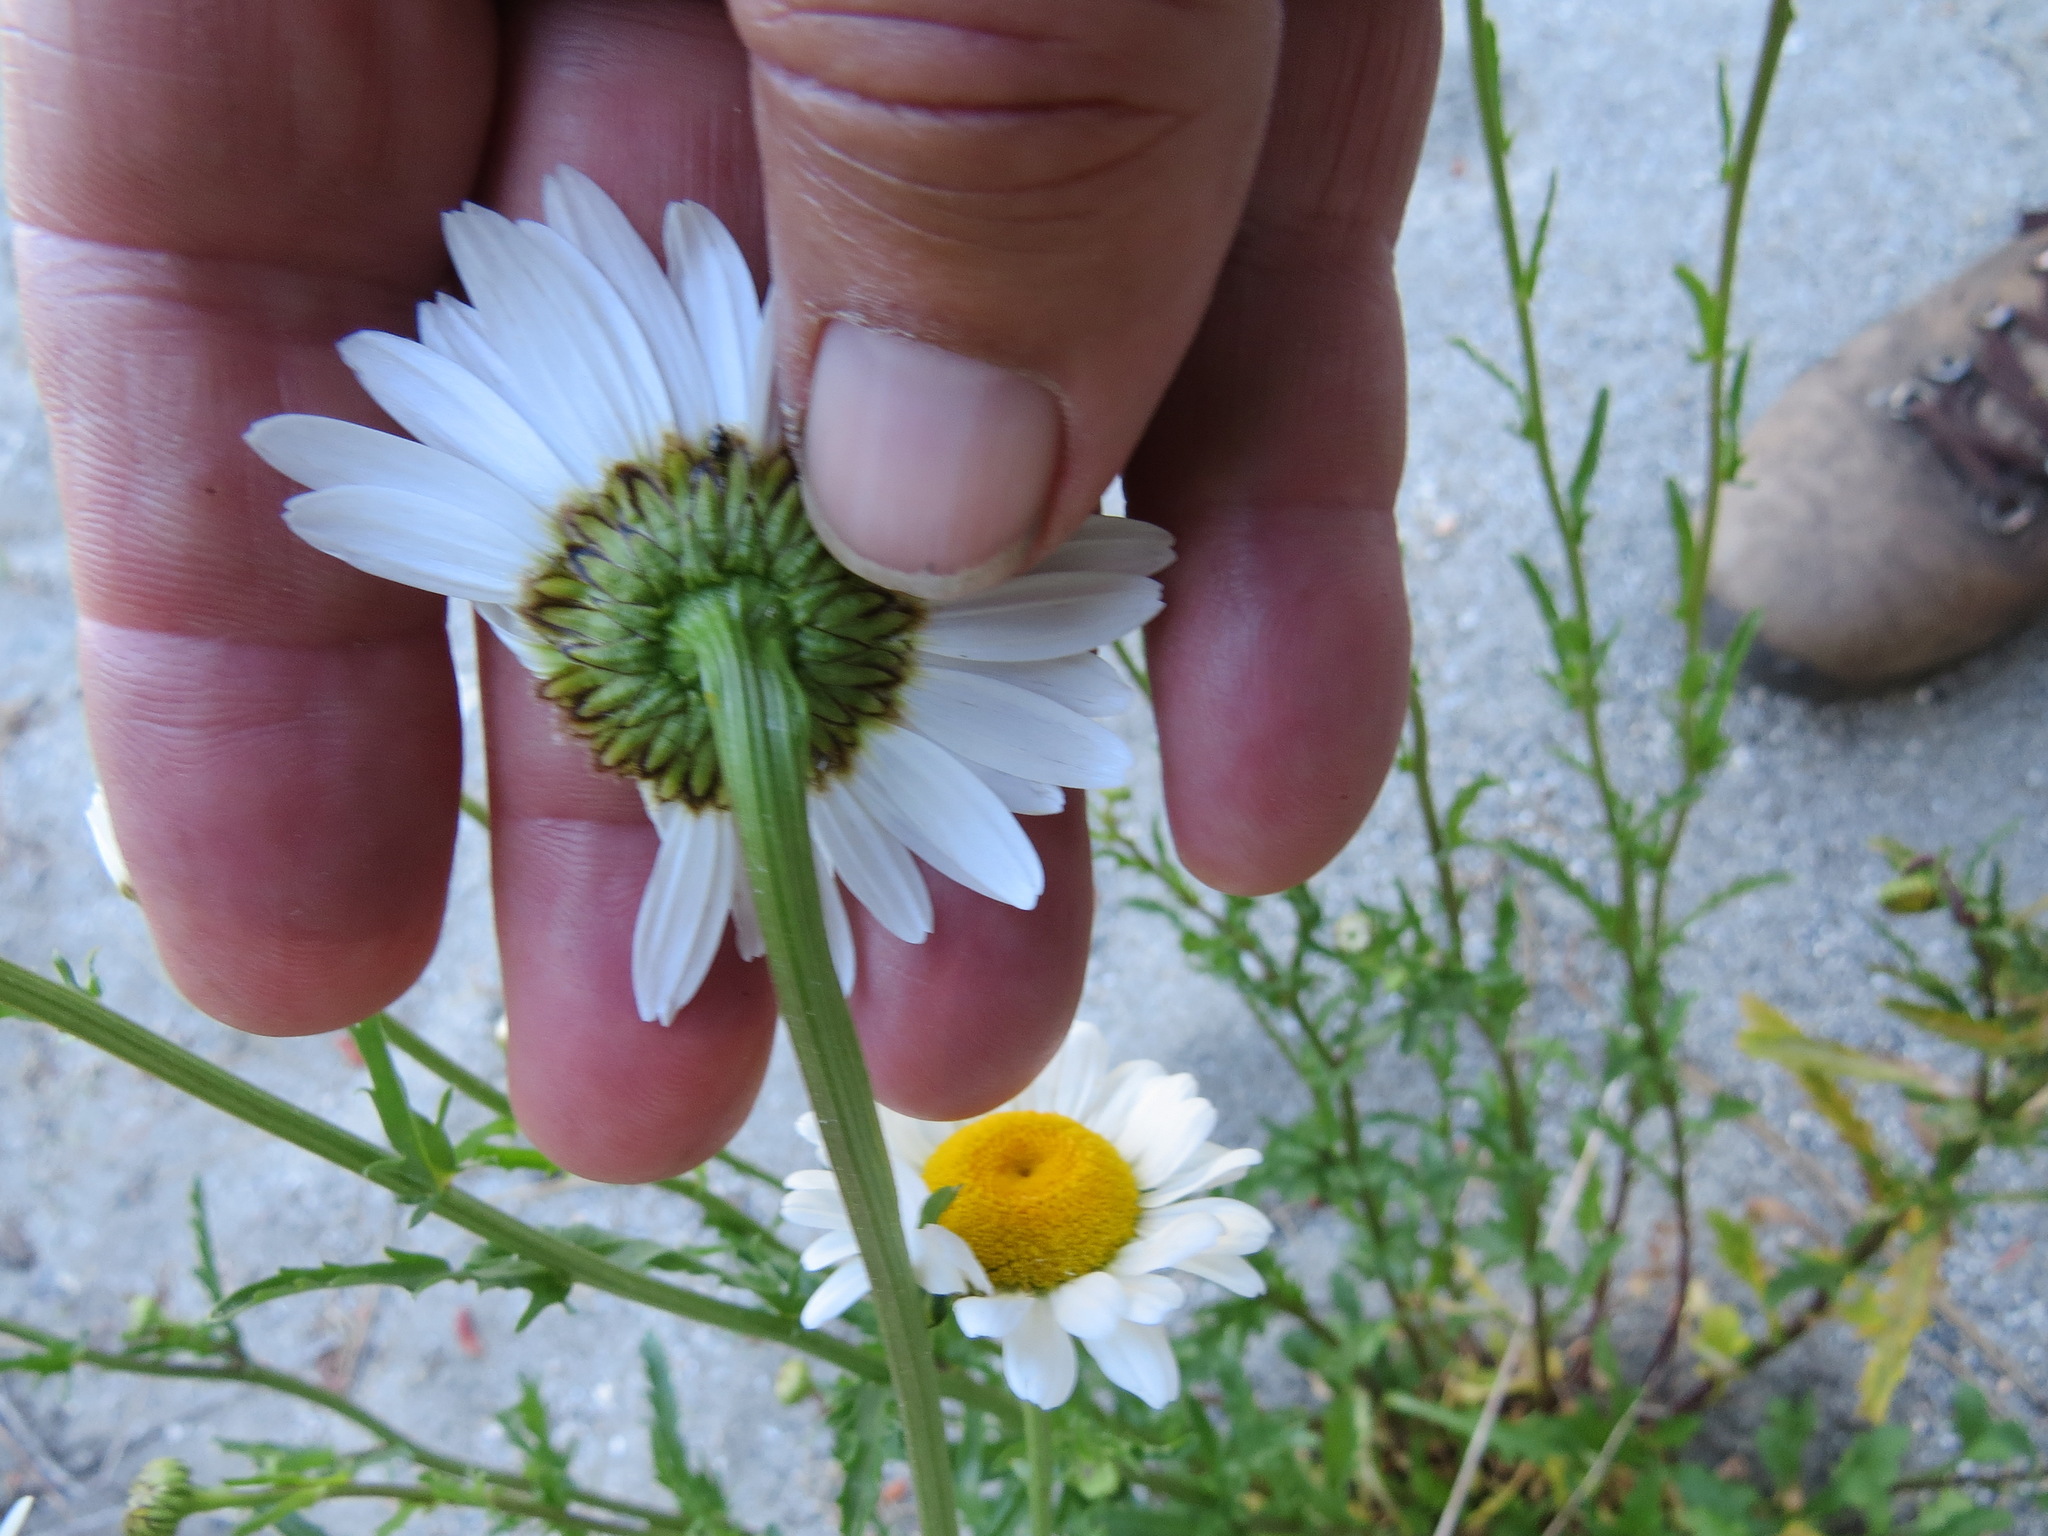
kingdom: Plantae
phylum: Tracheophyta
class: Magnoliopsida
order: Asterales
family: Asteraceae
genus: Leucanthemum
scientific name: Leucanthemum maximum
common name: Max chrysanthemum
